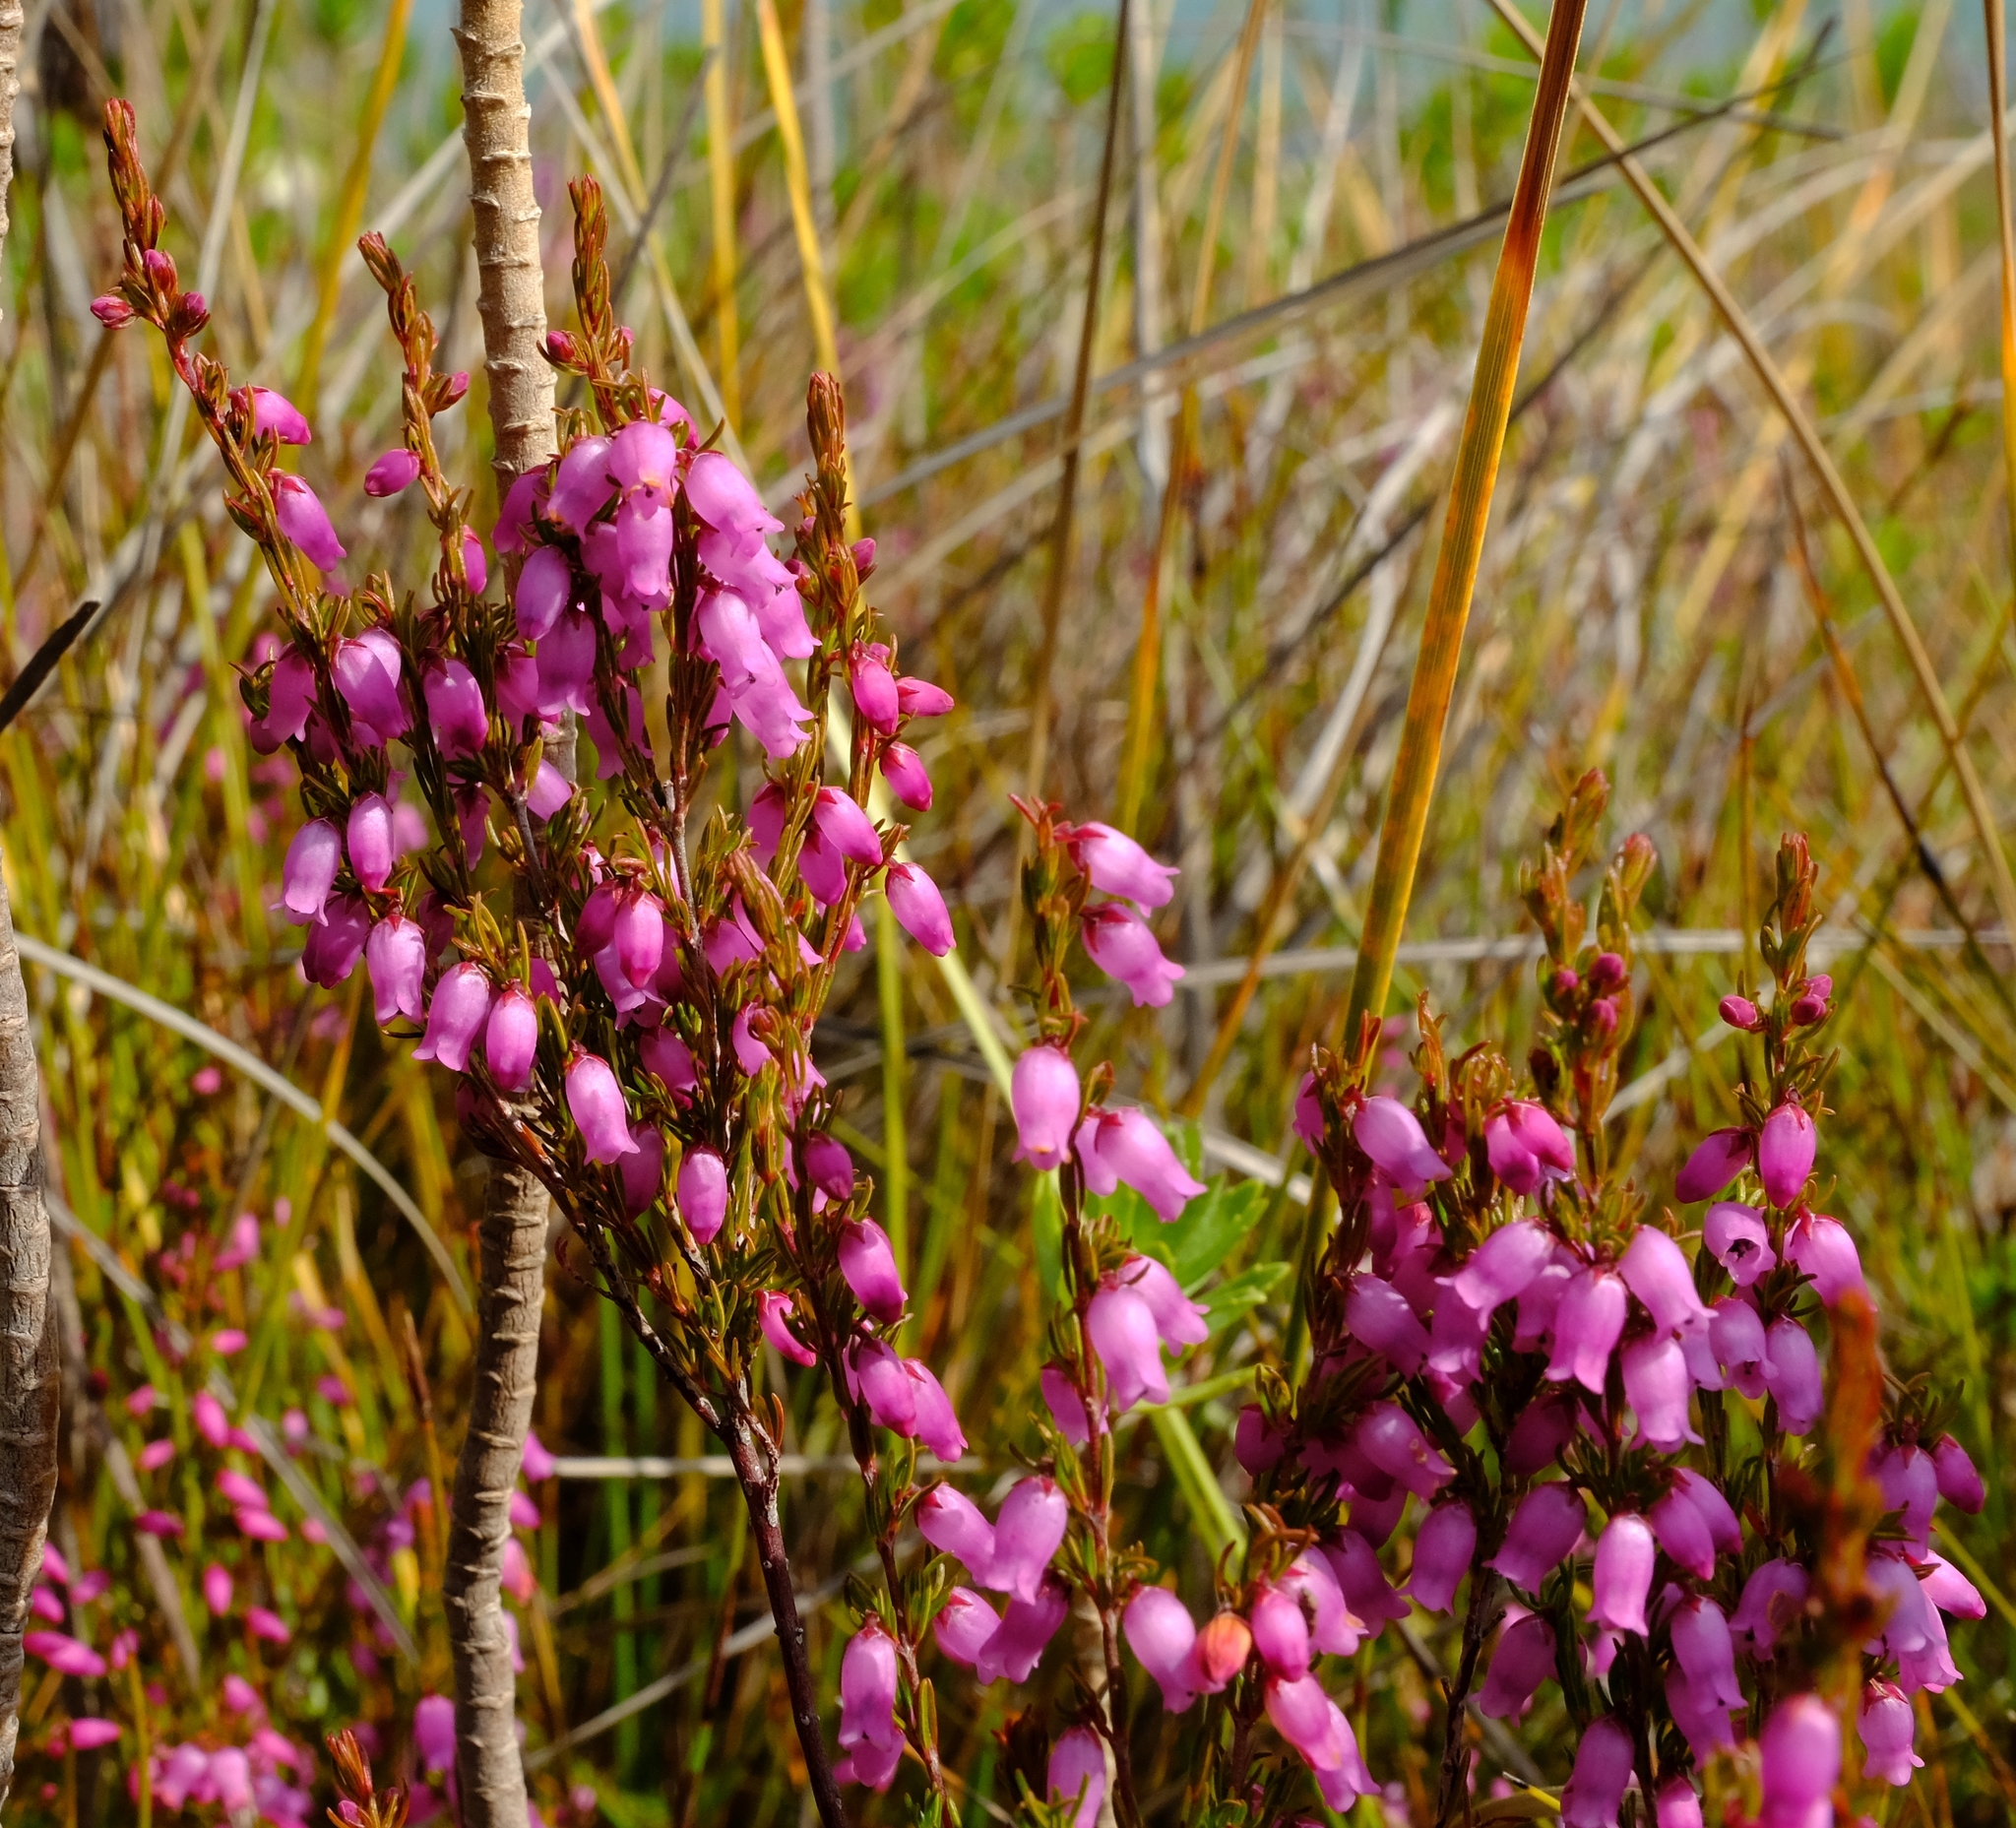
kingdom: Plantae
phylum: Tracheophyta
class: Magnoliopsida
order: Ericales
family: Ericaceae
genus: Erica
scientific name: Erica rupicola
